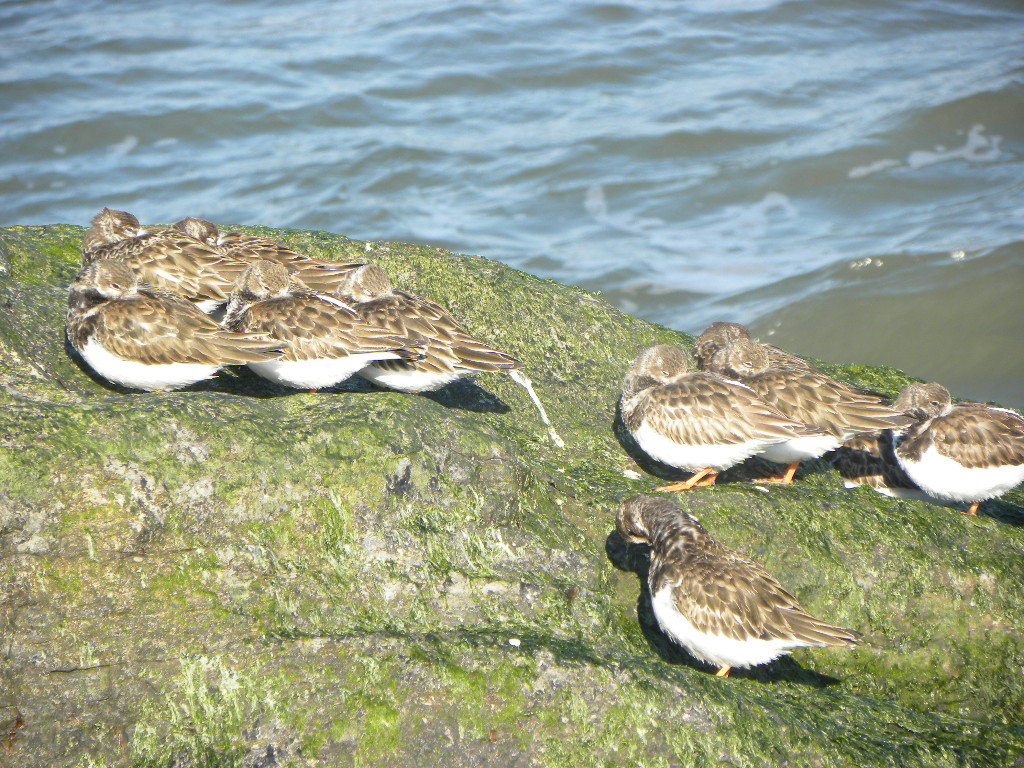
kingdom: Animalia
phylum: Chordata
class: Aves
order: Charadriiformes
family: Scolopacidae
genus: Arenaria
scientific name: Arenaria interpres
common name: Ruddy turnstone
